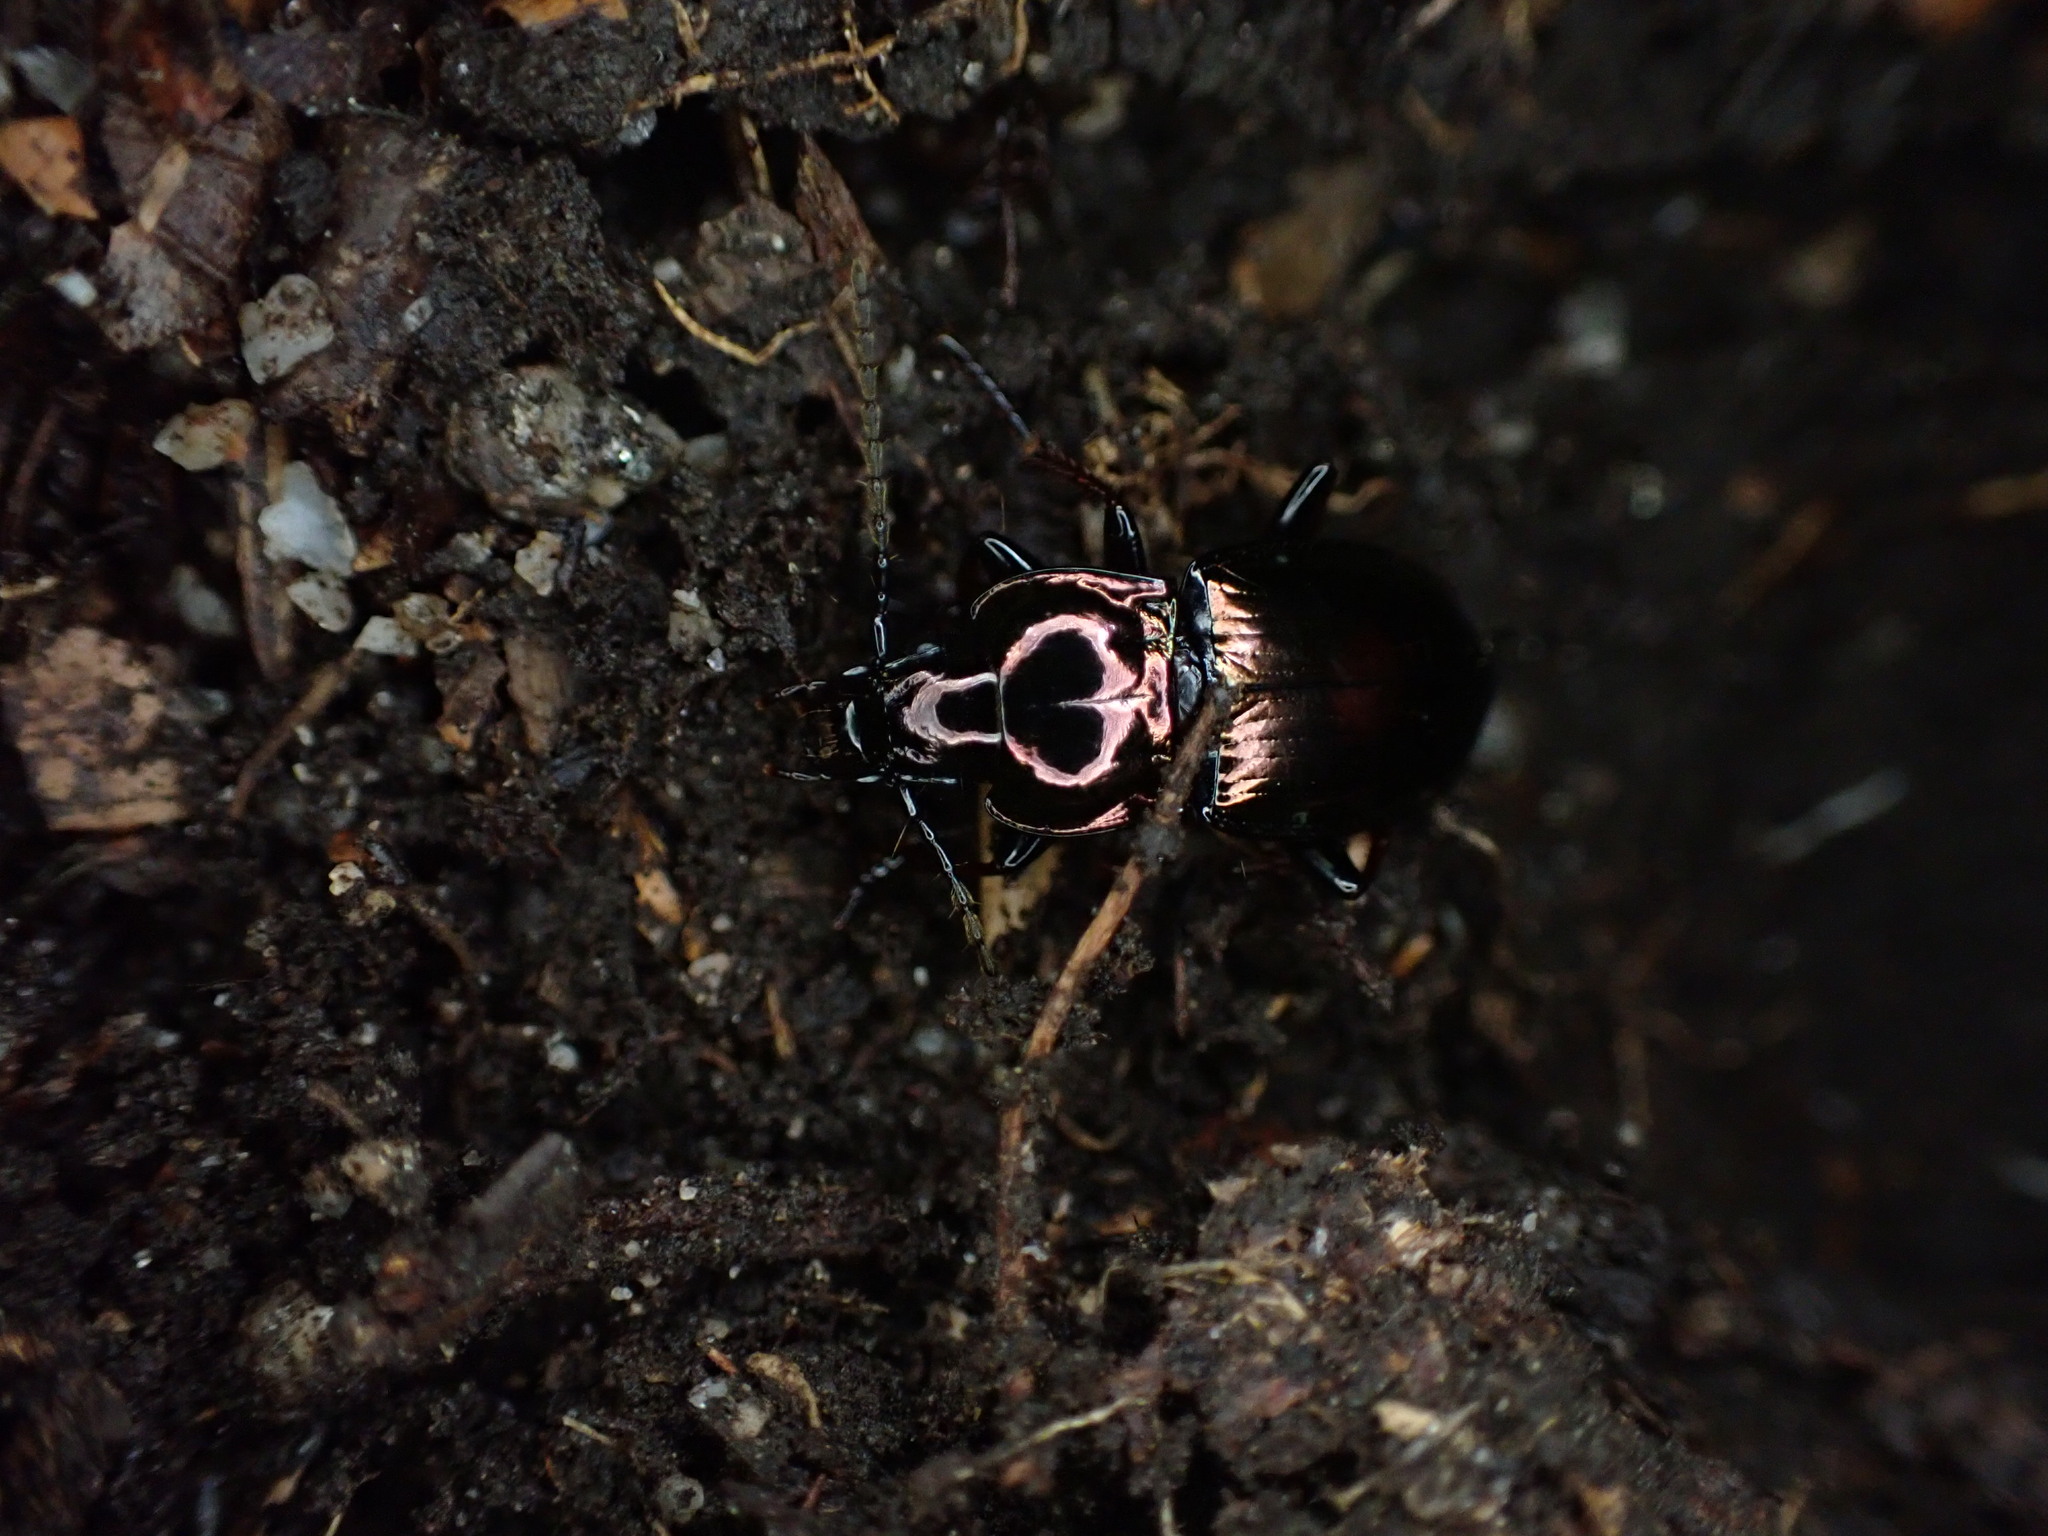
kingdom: Animalia
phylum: Arthropoda
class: Insecta
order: Coleoptera
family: Carabidae
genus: Pterostichus
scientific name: Pterostichus burmeisteri
